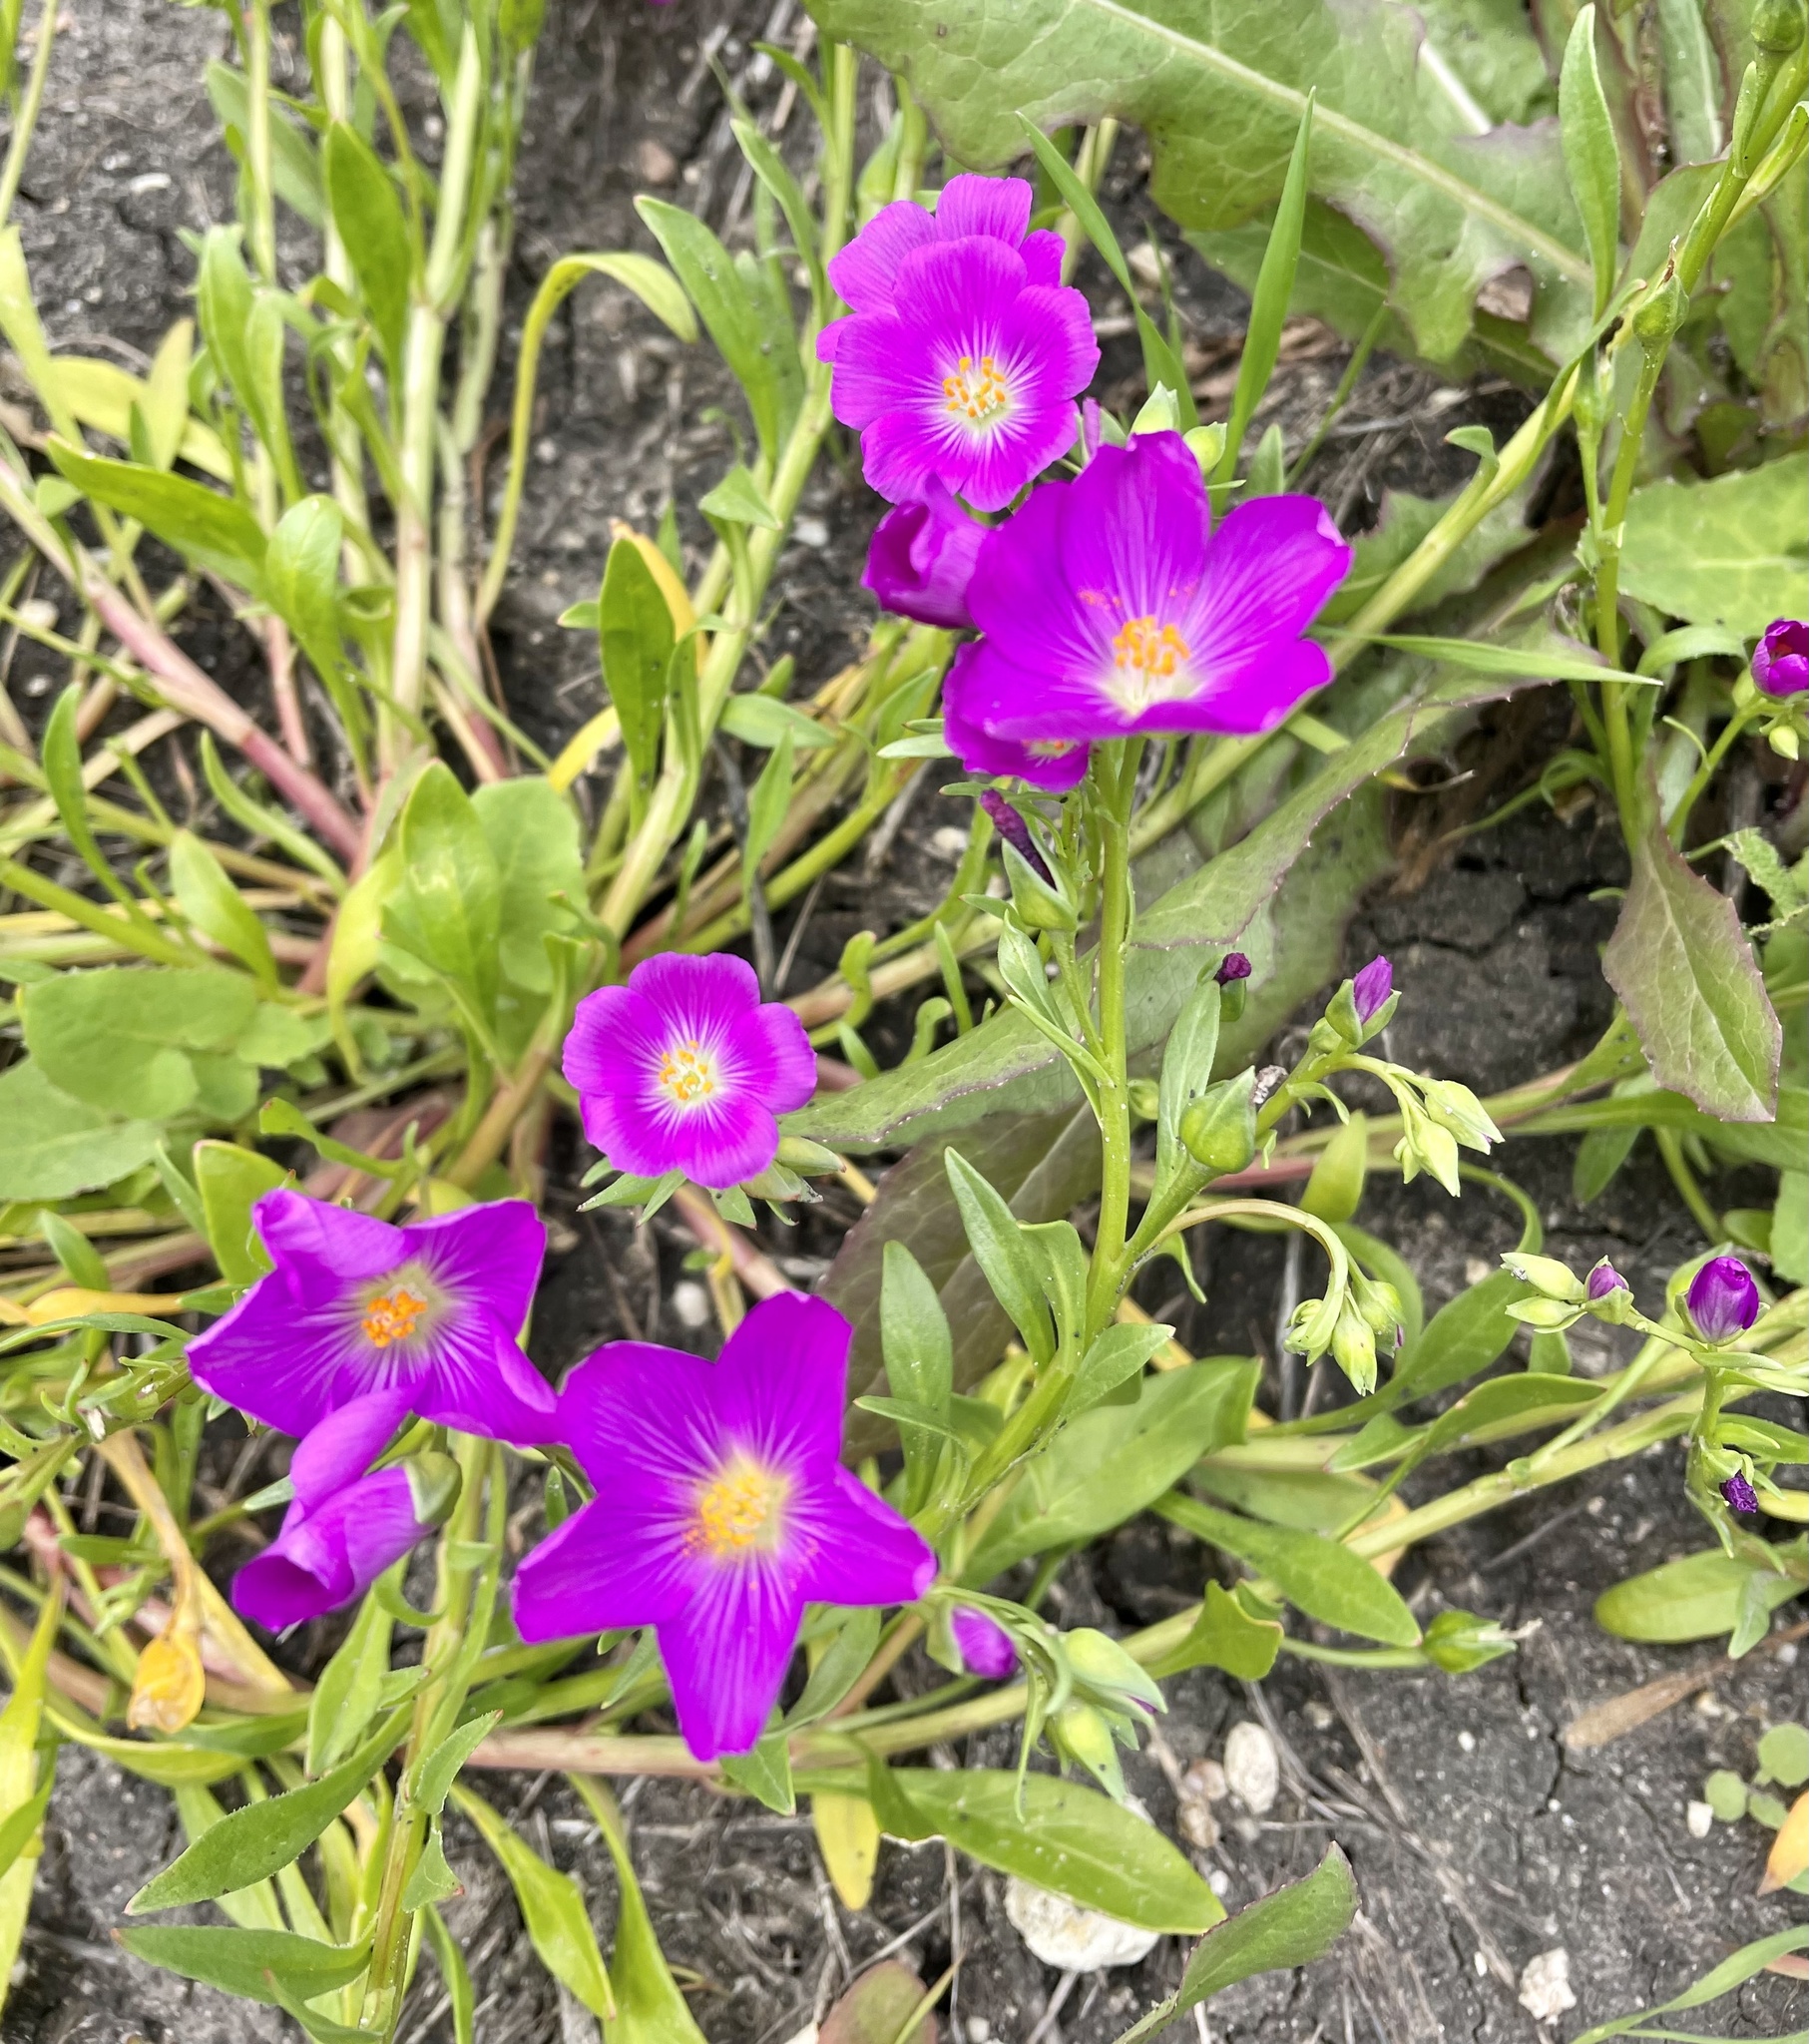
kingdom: Plantae
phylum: Tracheophyta
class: Magnoliopsida
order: Caryophyllales
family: Montiaceae
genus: Calandrinia
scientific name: Calandrinia menziesii
